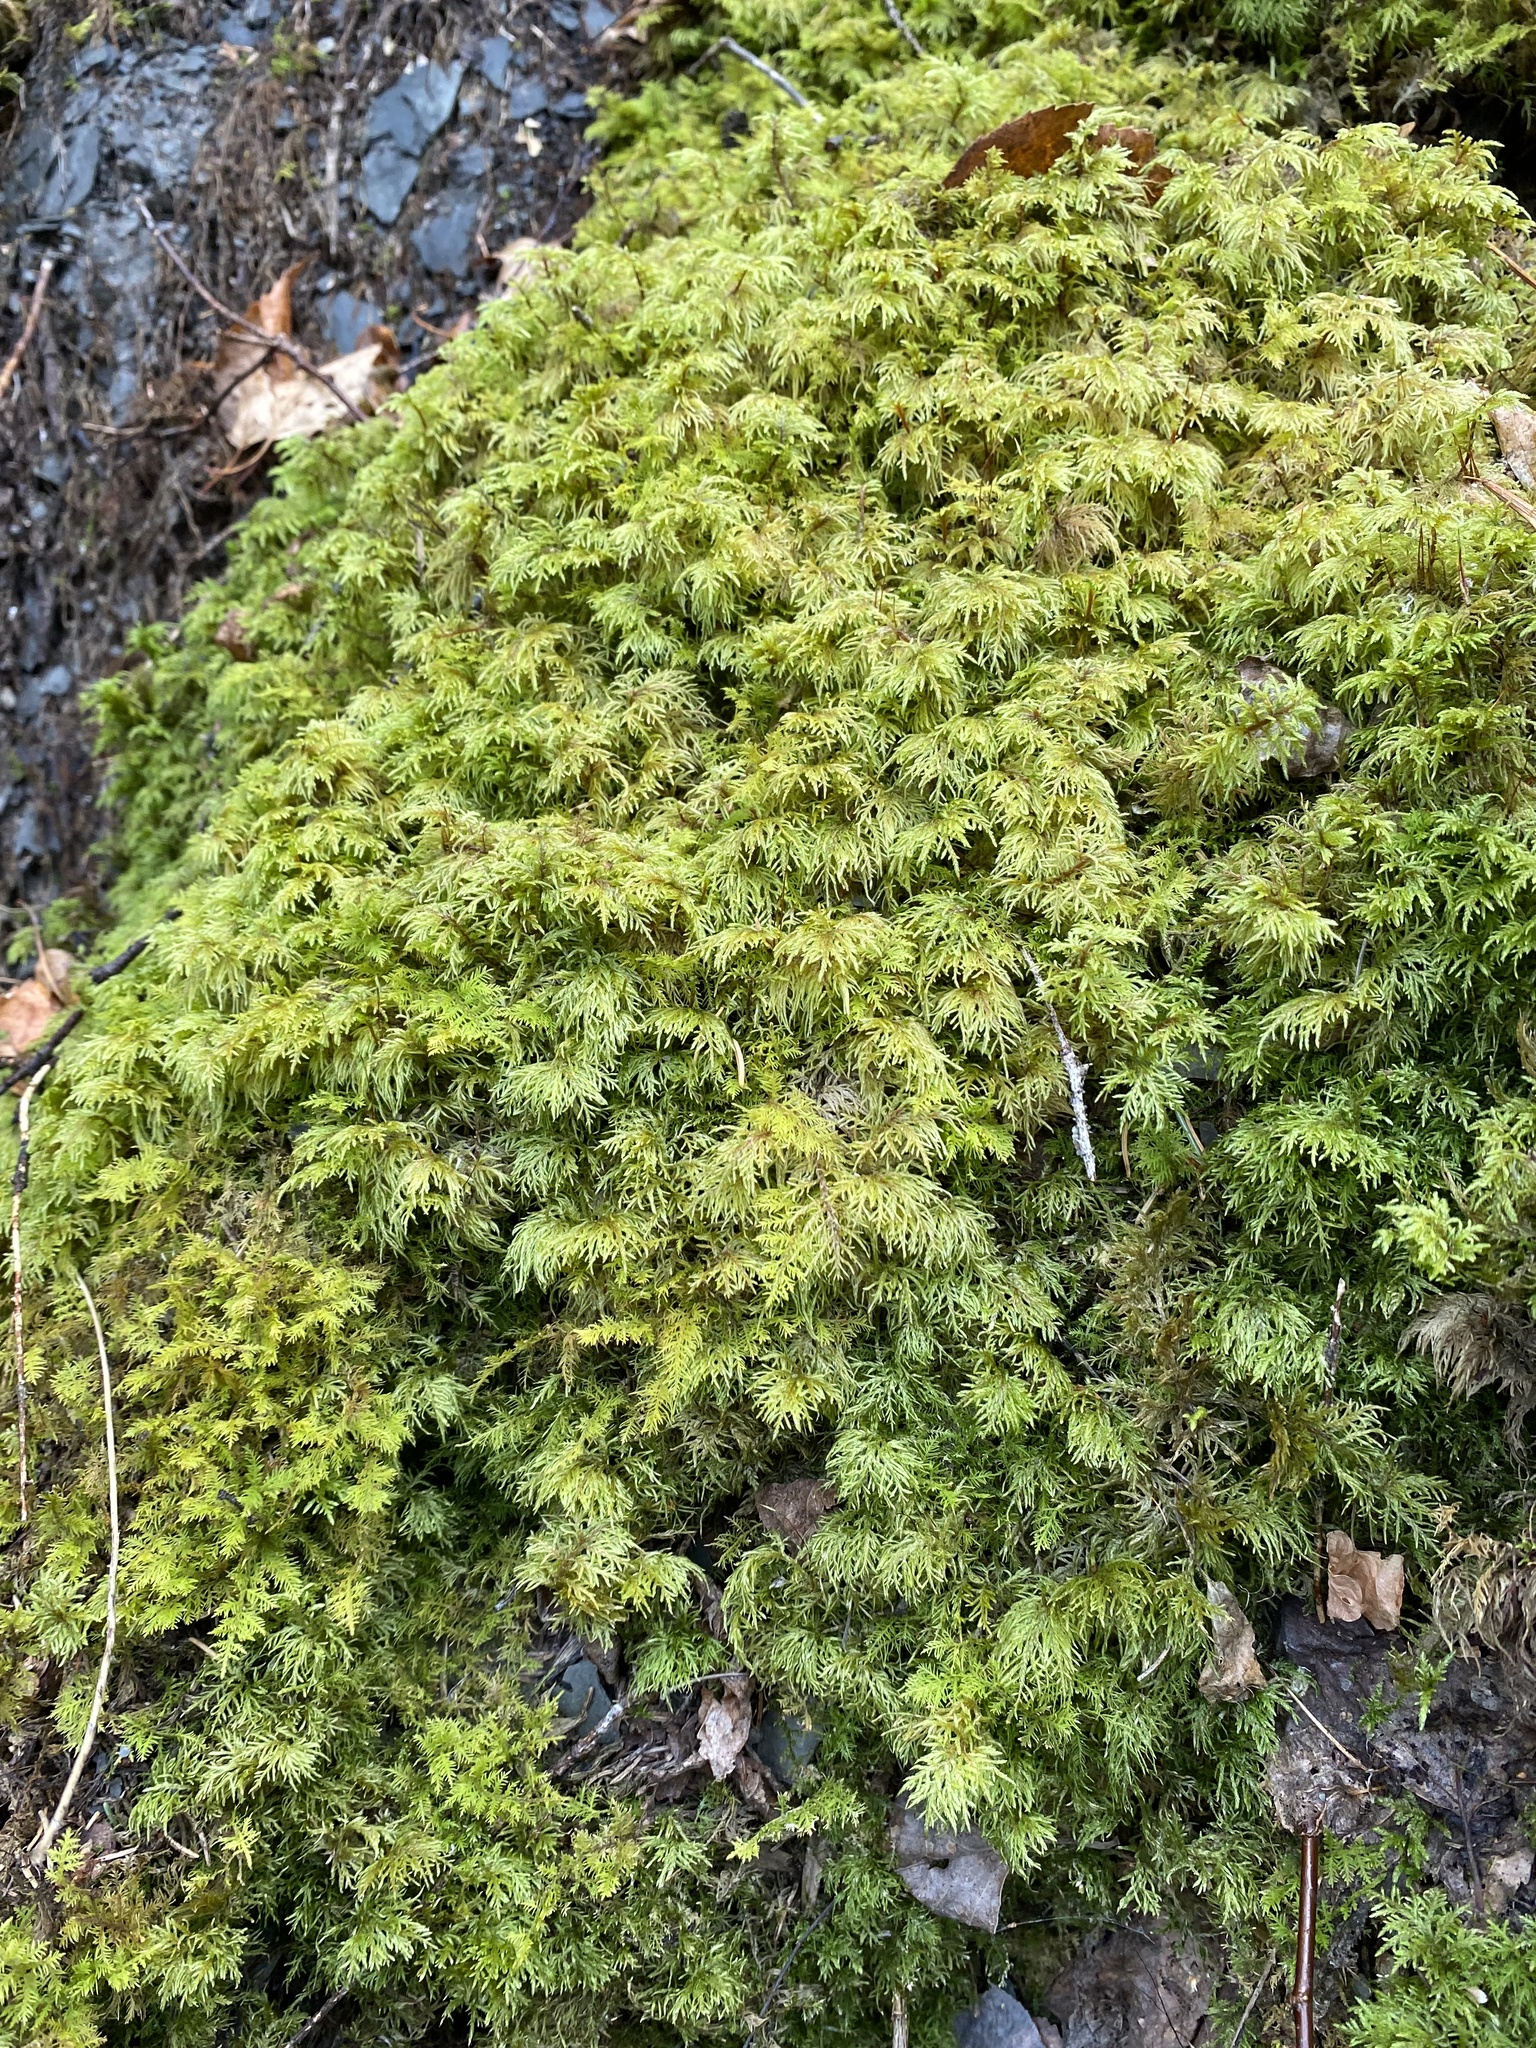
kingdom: Plantae
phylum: Bryophyta
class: Bryopsida
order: Hypnales
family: Hylocomiaceae
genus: Hylocomium
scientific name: Hylocomium splendens
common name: Stairstep moss
